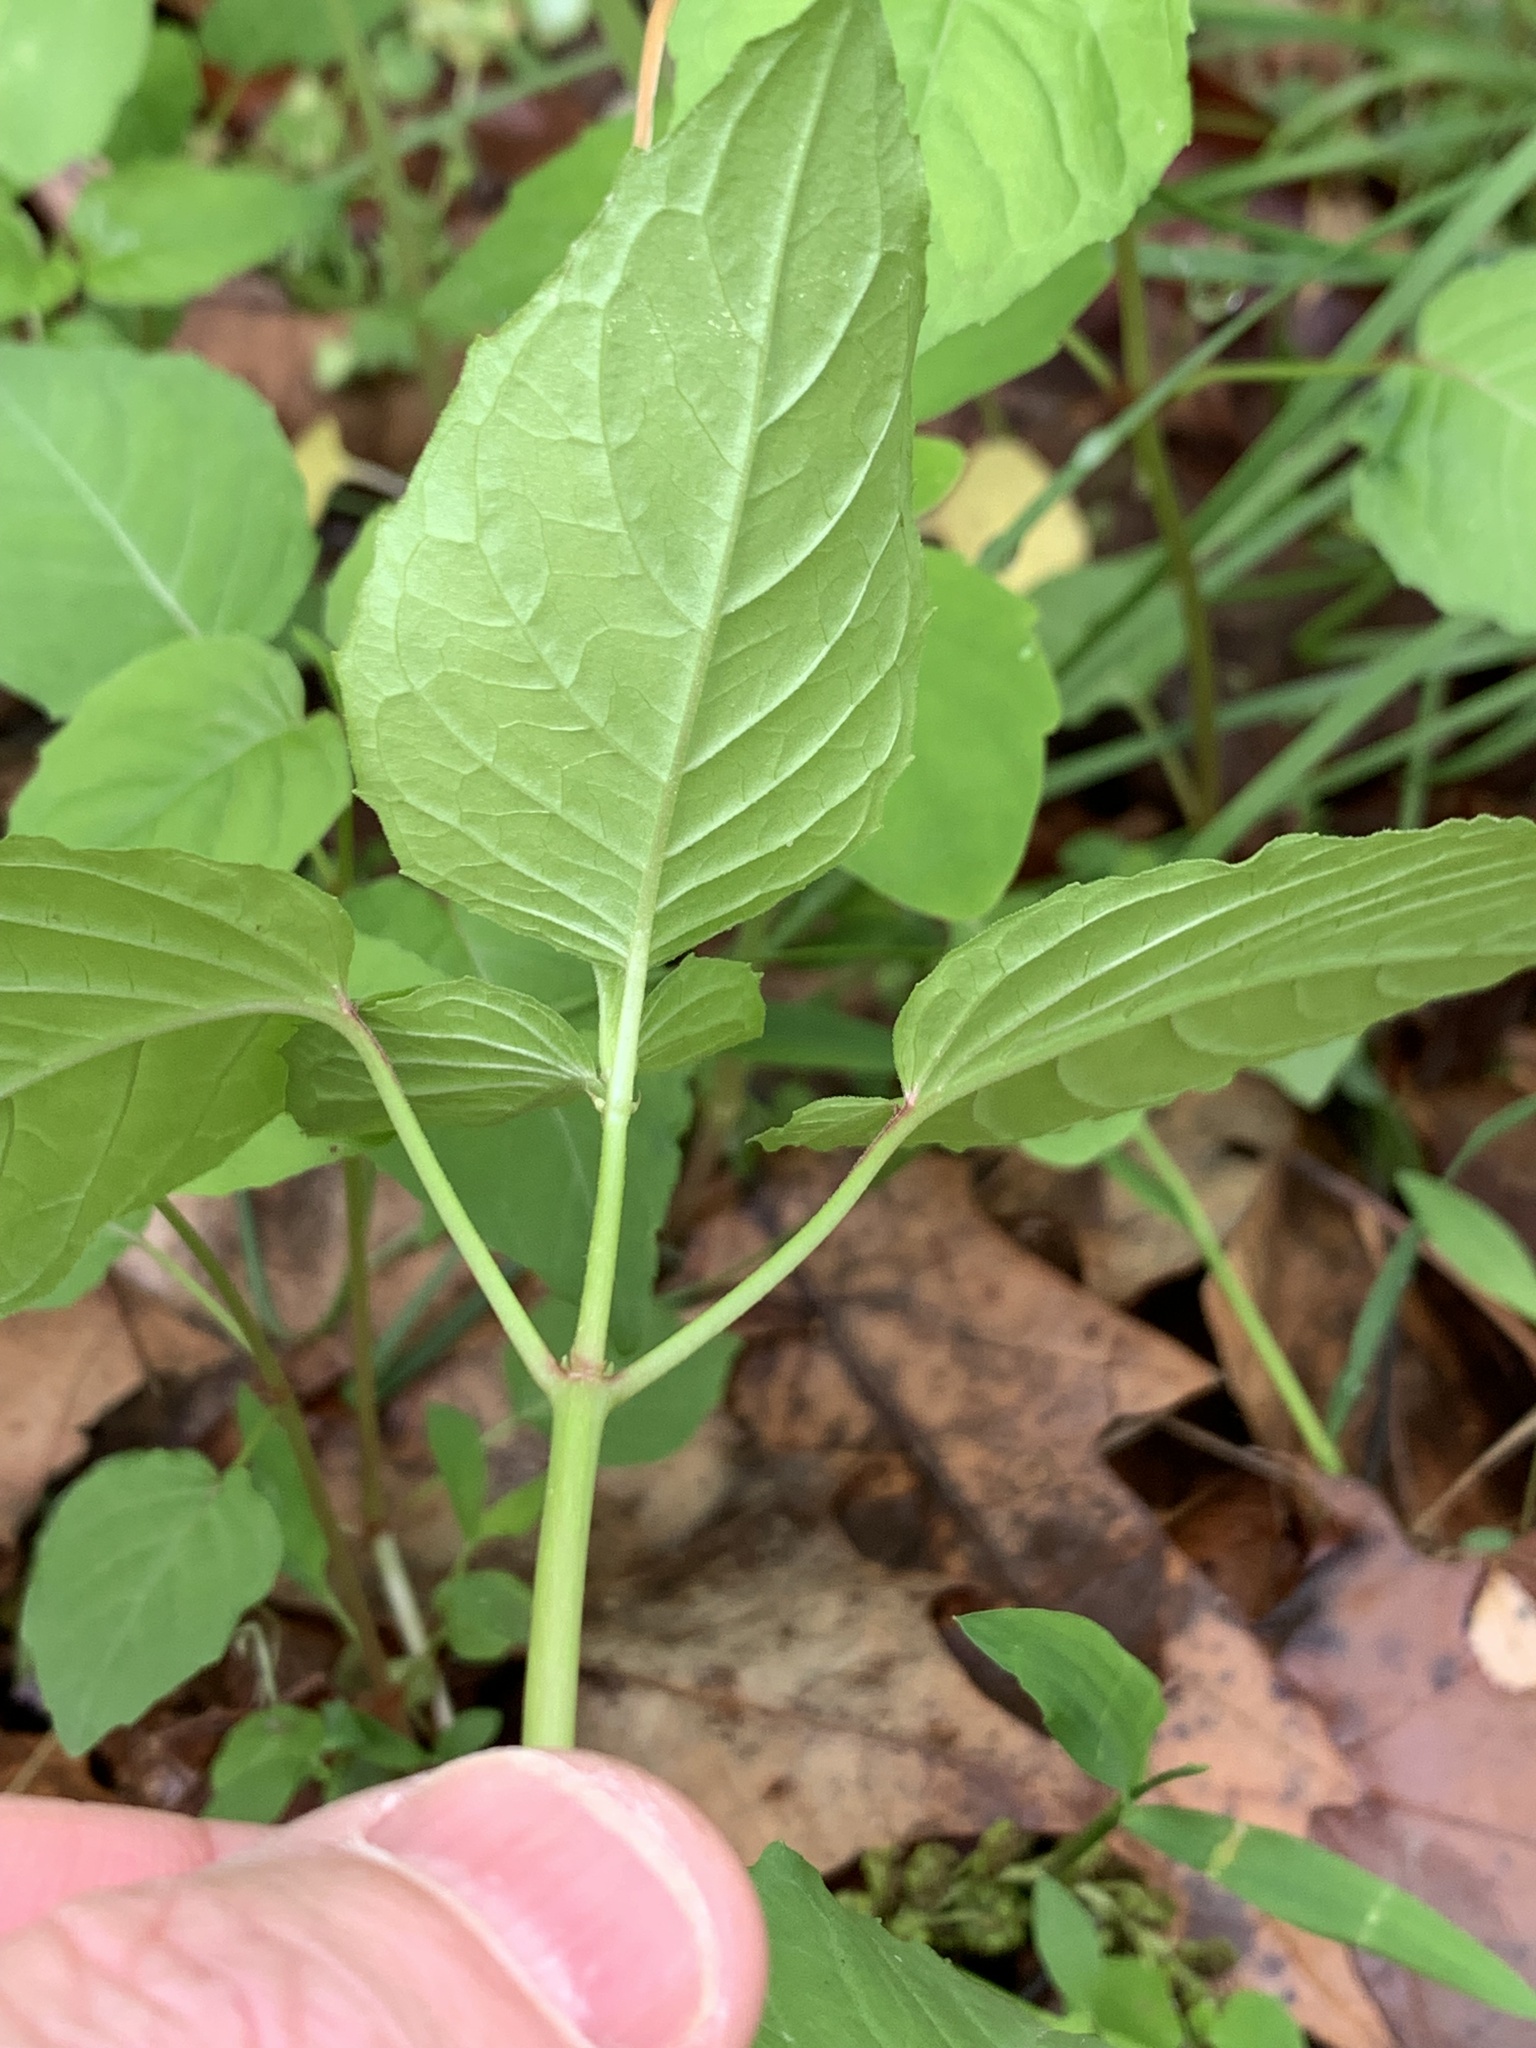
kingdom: Animalia
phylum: Arthropoda
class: Arachnida
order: Trombidiformes
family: Eriophyidae
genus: Aceria
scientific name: Aceria
